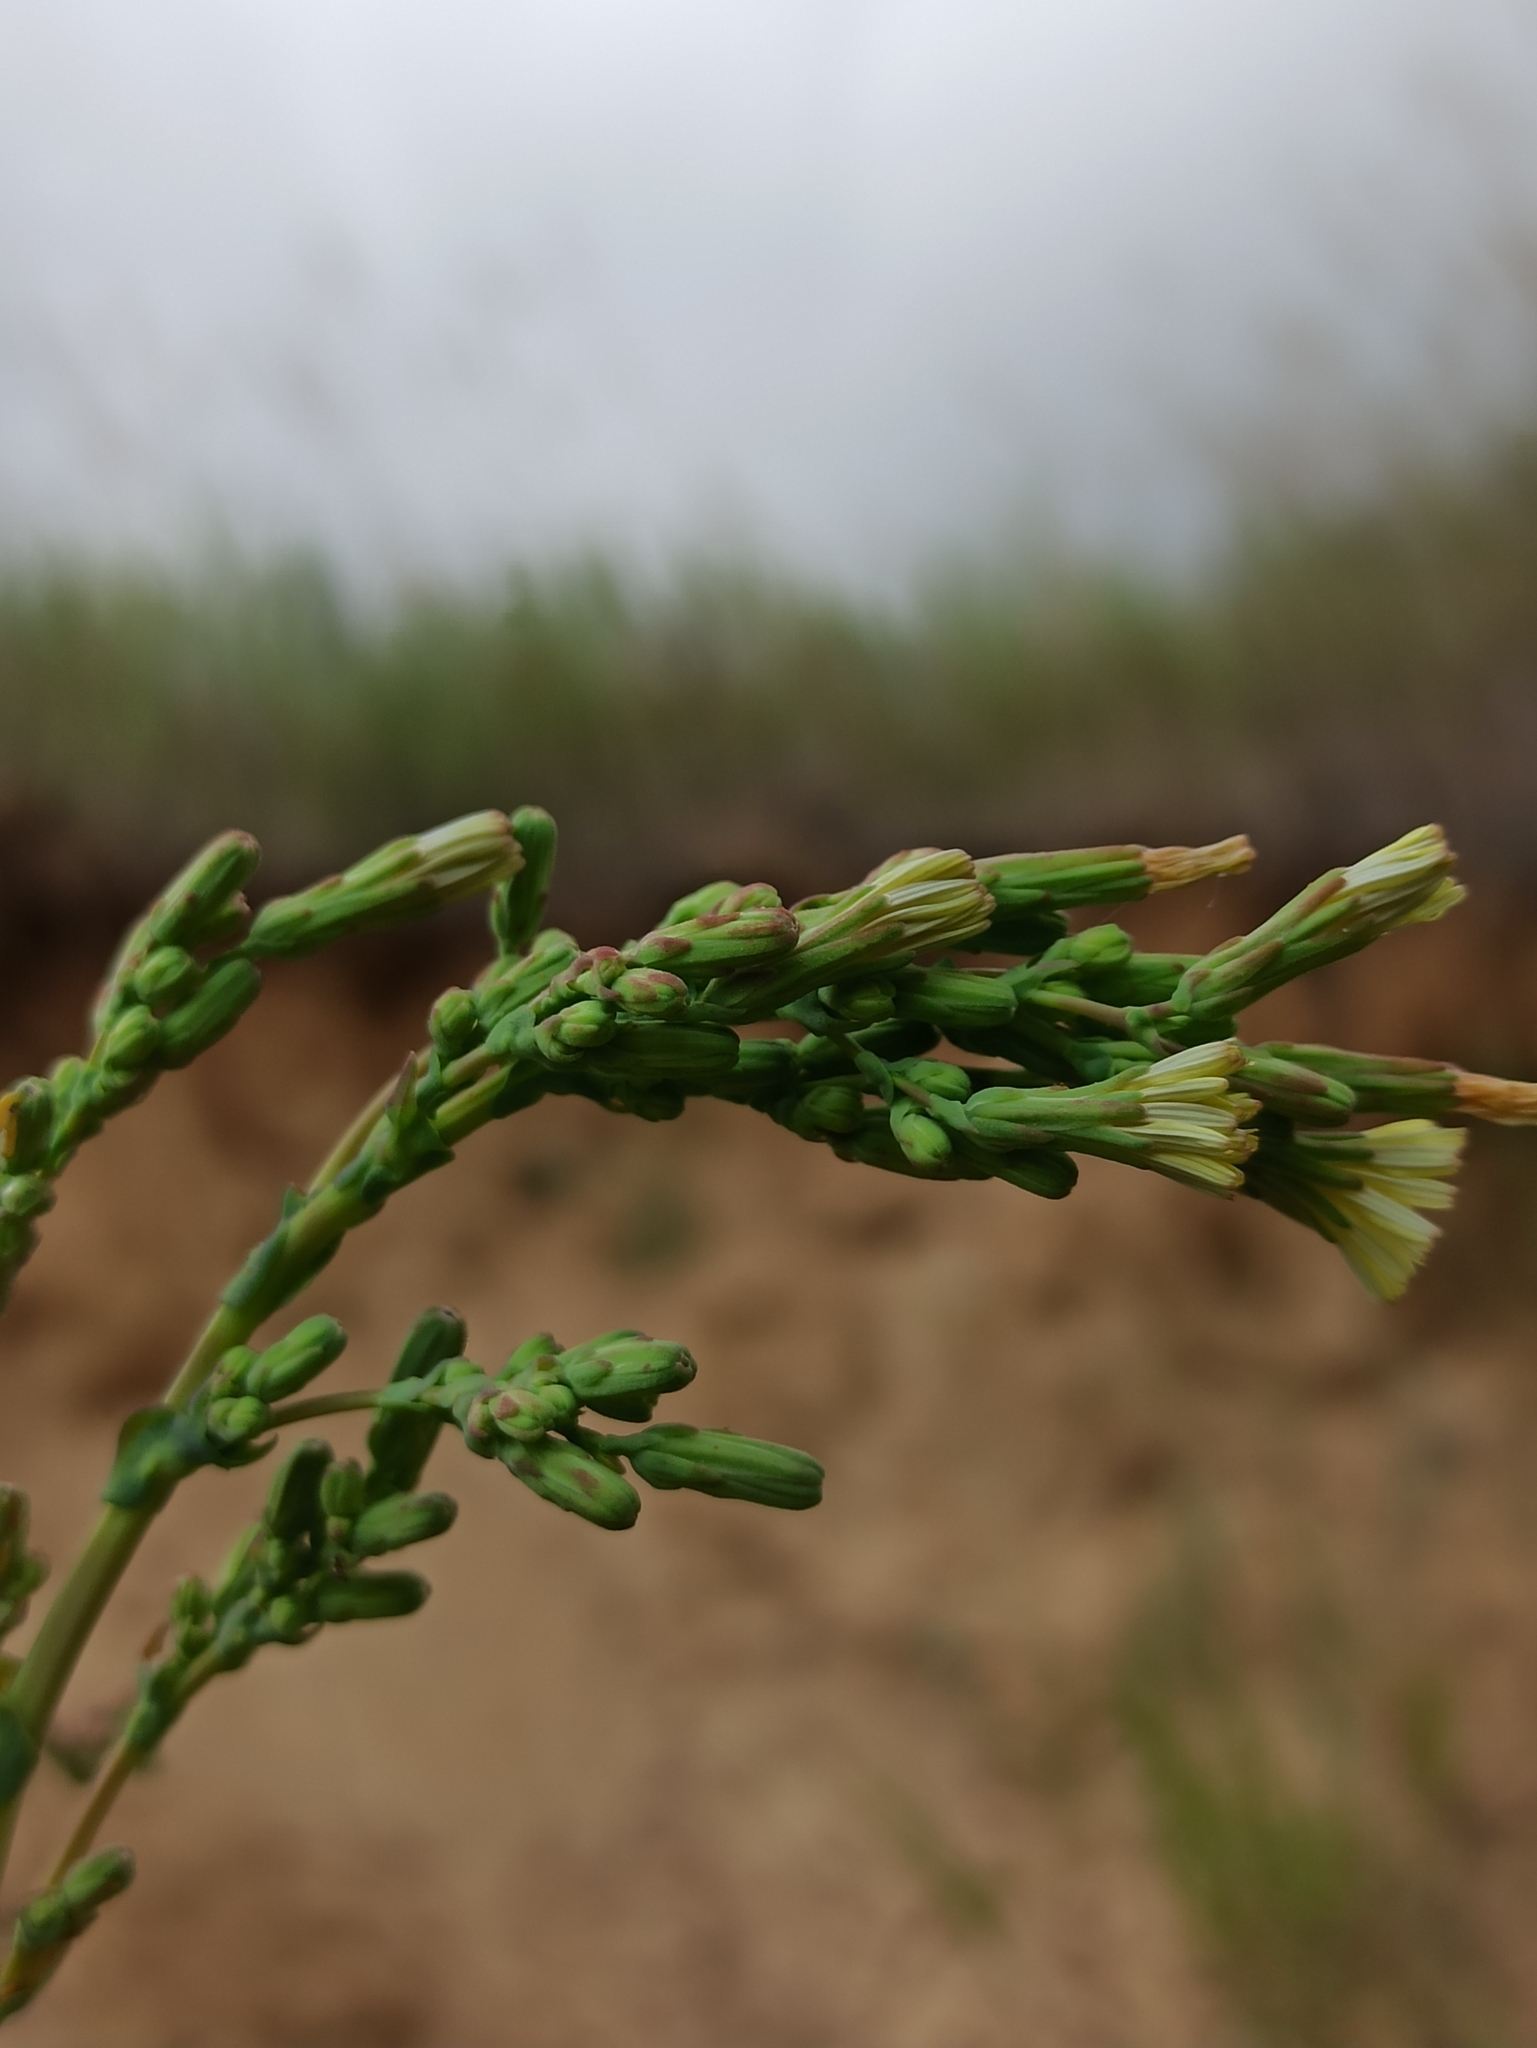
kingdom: Plantae
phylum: Tracheophyta
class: Magnoliopsida
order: Asterales
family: Asteraceae
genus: Lactuca
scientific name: Lactuca serriola
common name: Prickly lettuce
